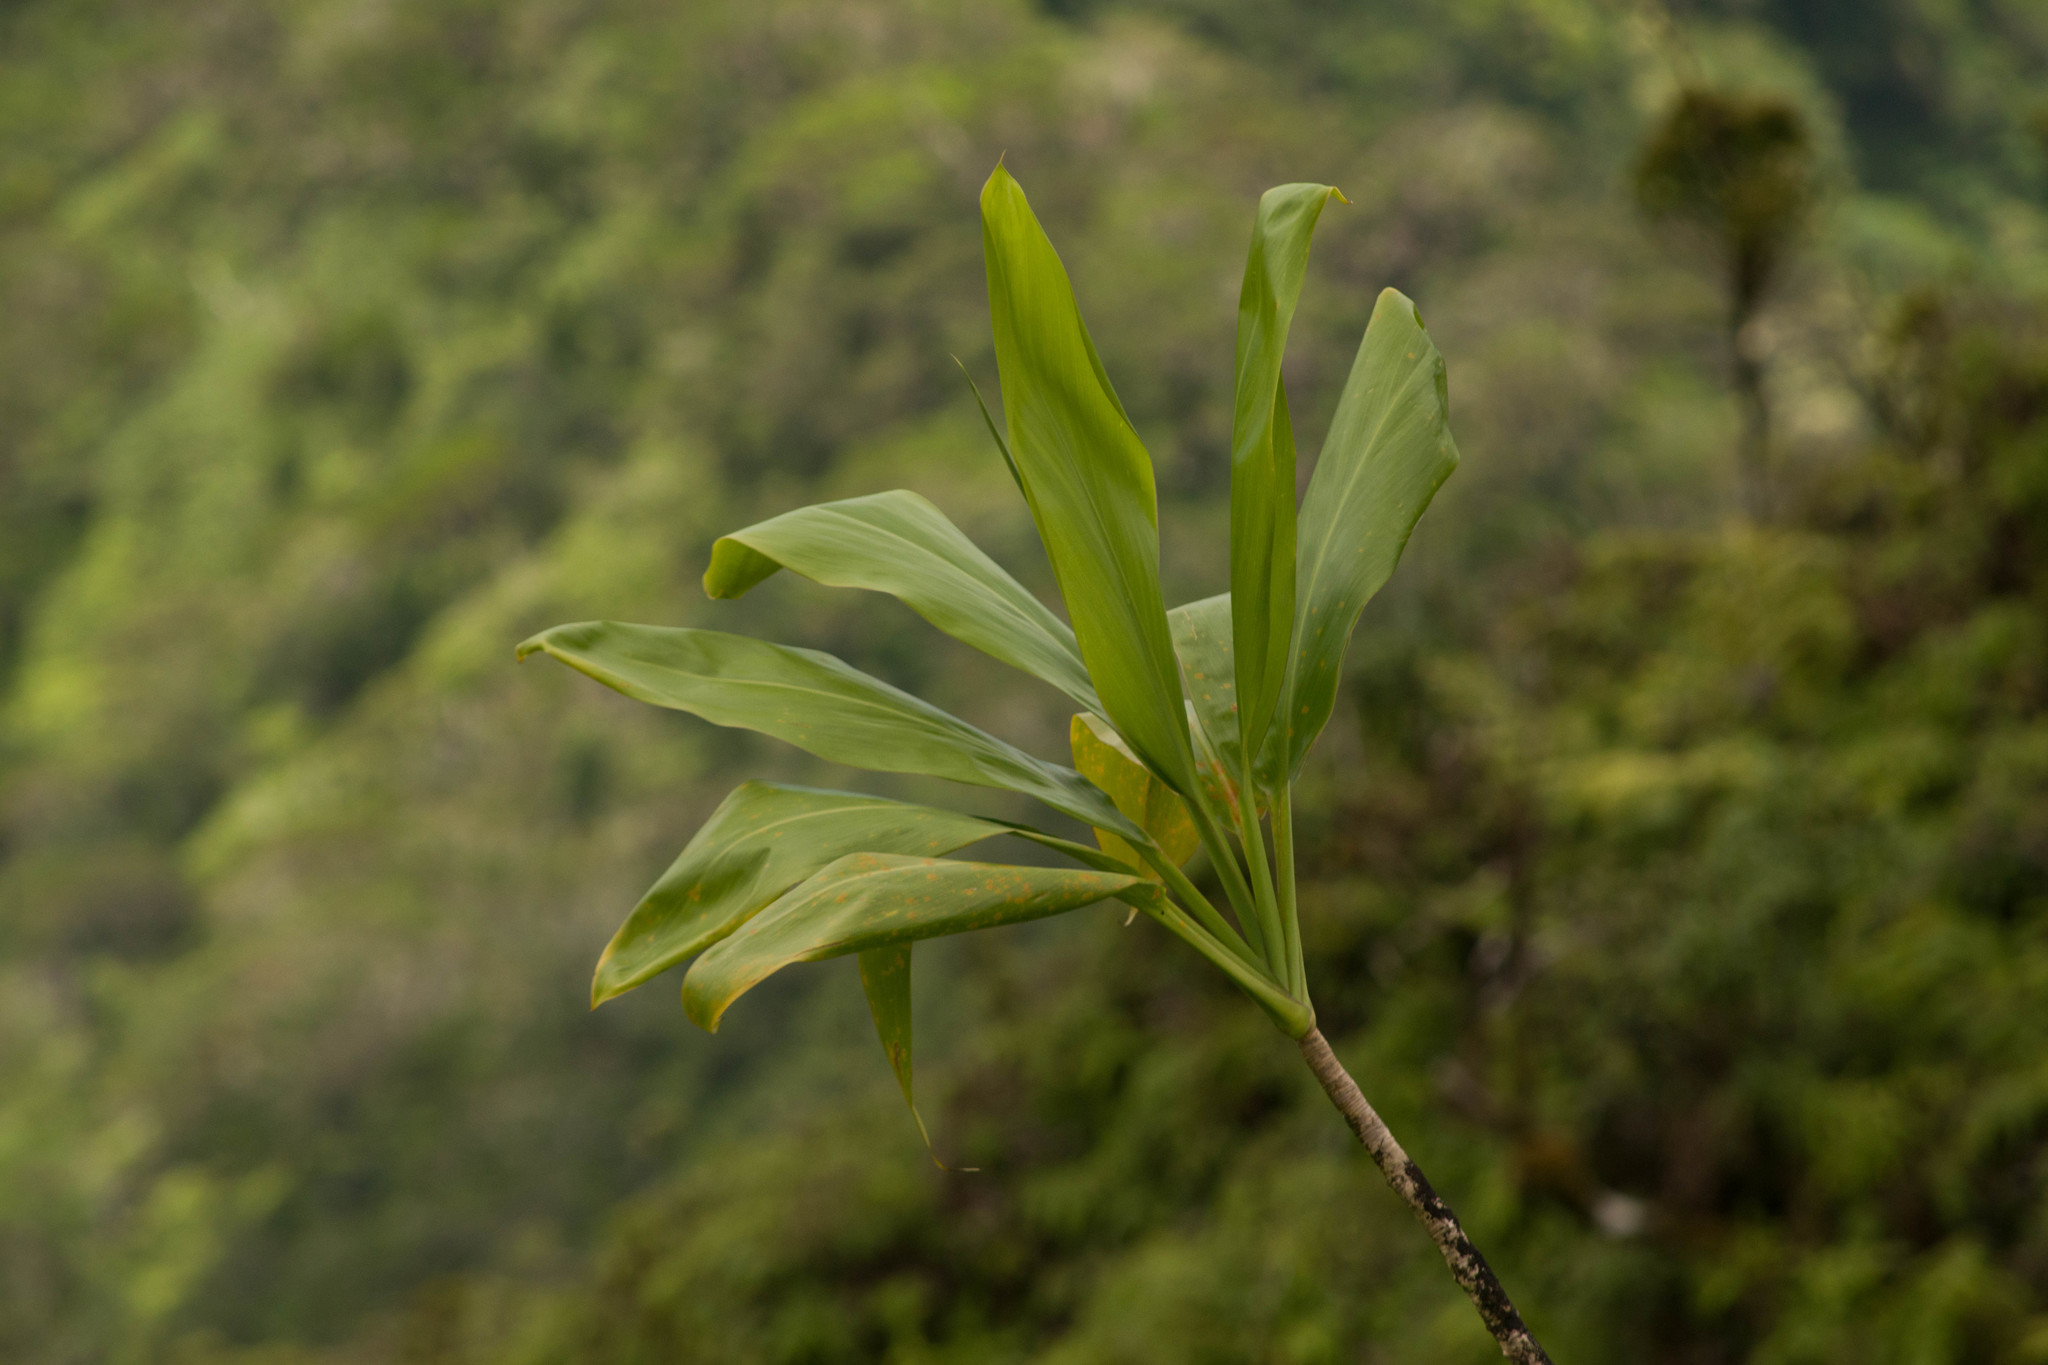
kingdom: Plantae
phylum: Tracheophyta
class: Liliopsida
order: Asparagales
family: Asparagaceae
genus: Cordyline
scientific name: Cordyline fruticosa
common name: Good-luck-plant
